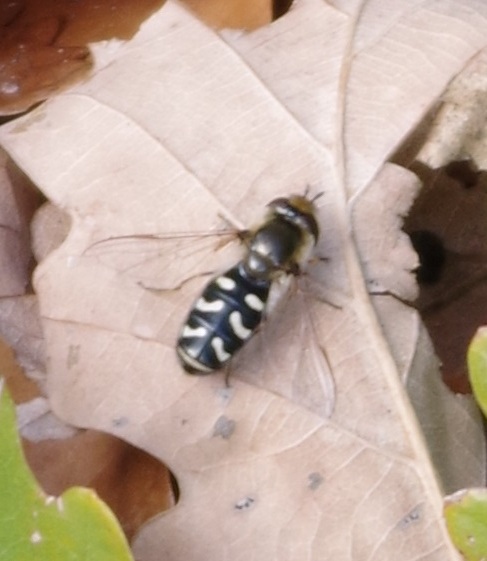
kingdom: Animalia
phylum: Arthropoda
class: Insecta
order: Diptera
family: Syrphidae
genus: Scaeva
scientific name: Scaeva pyrastri
